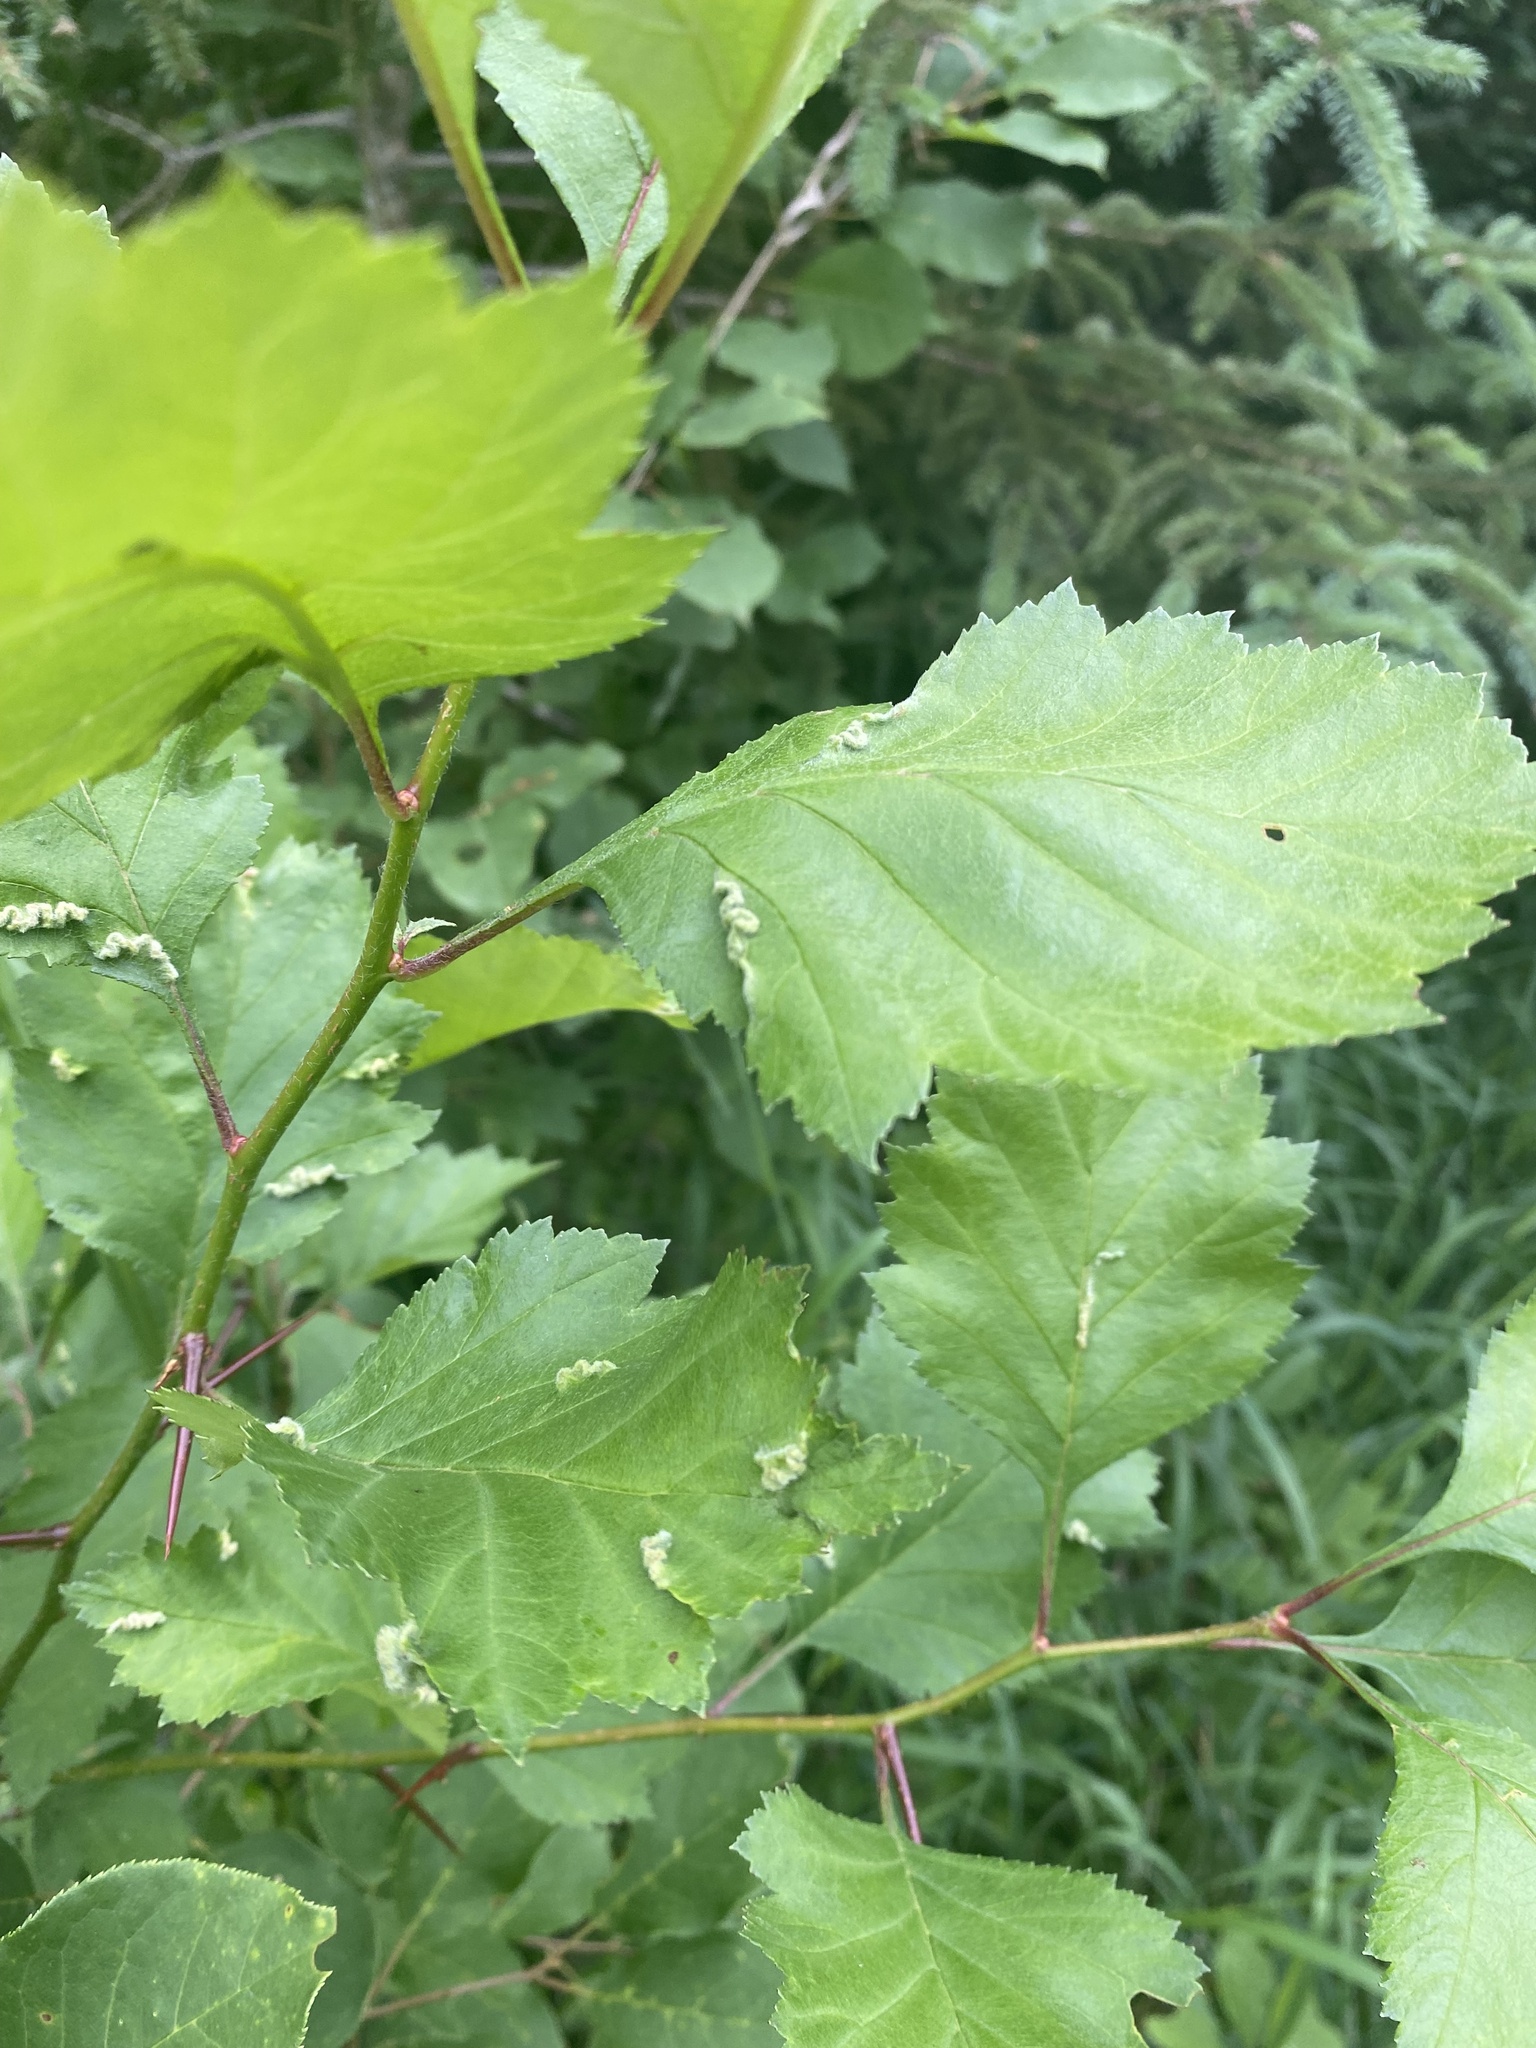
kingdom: Animalia
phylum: Arthropoda
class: Insecta
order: Diptera
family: Cecidomyiidae
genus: Blaesodiplosis
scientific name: Blaesodiplosis crataegifolia
